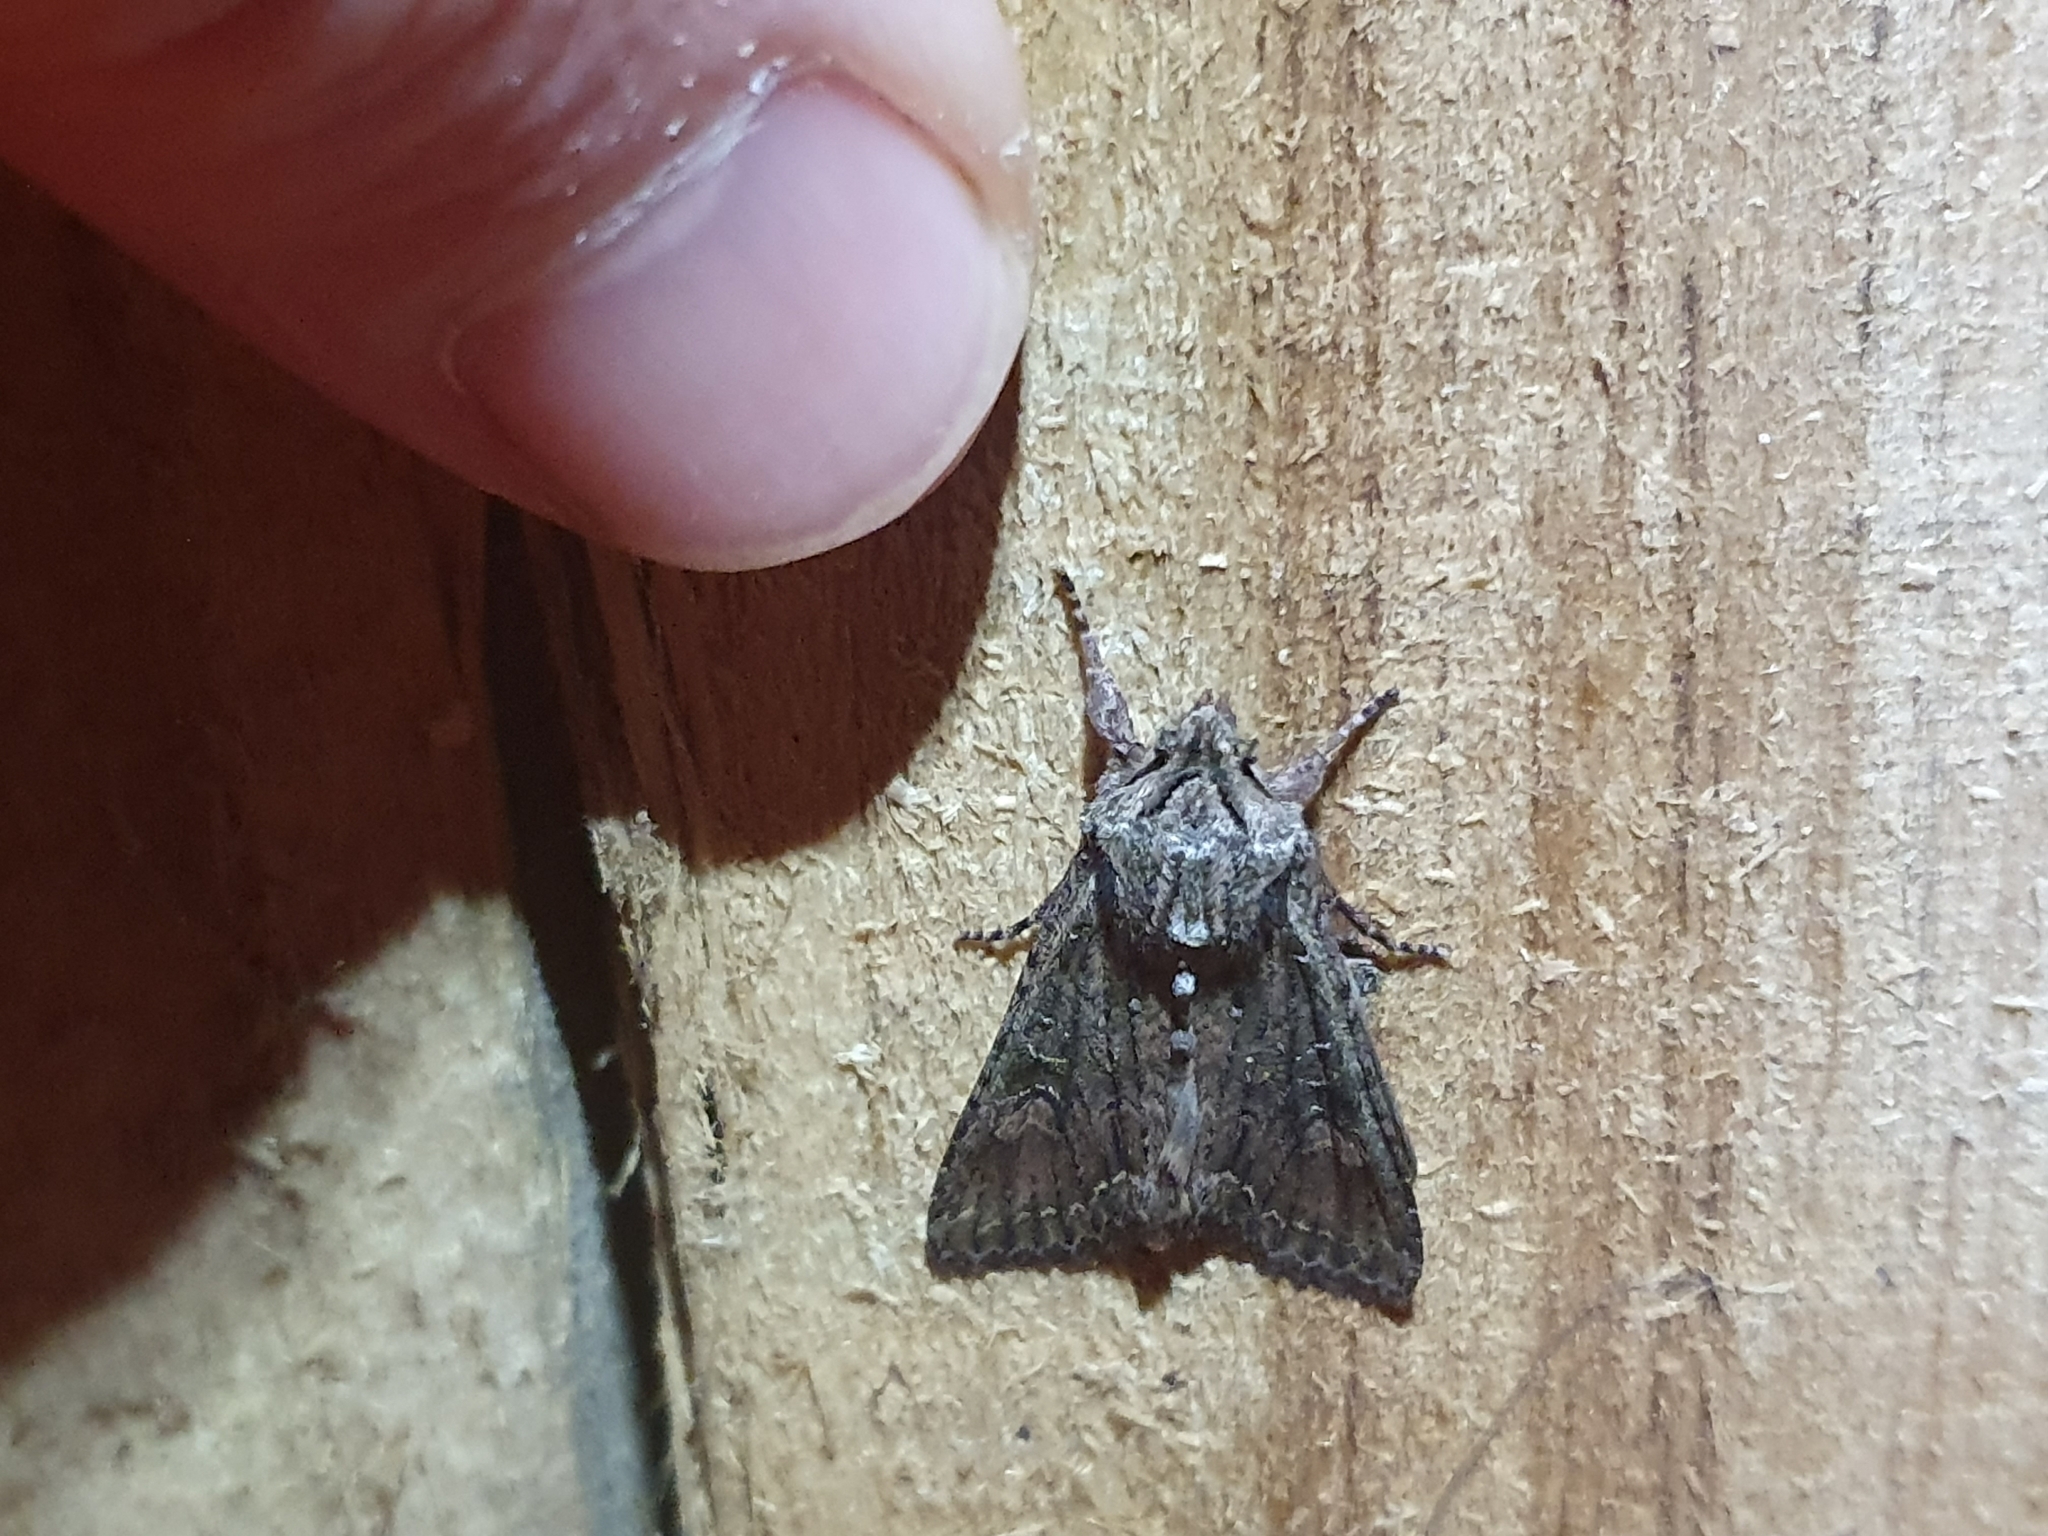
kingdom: Animalia
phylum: Arthropoda
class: Insecta
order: Lepidoptera
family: Noctuidae
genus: Ichneutica
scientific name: Ichneutica mutans
